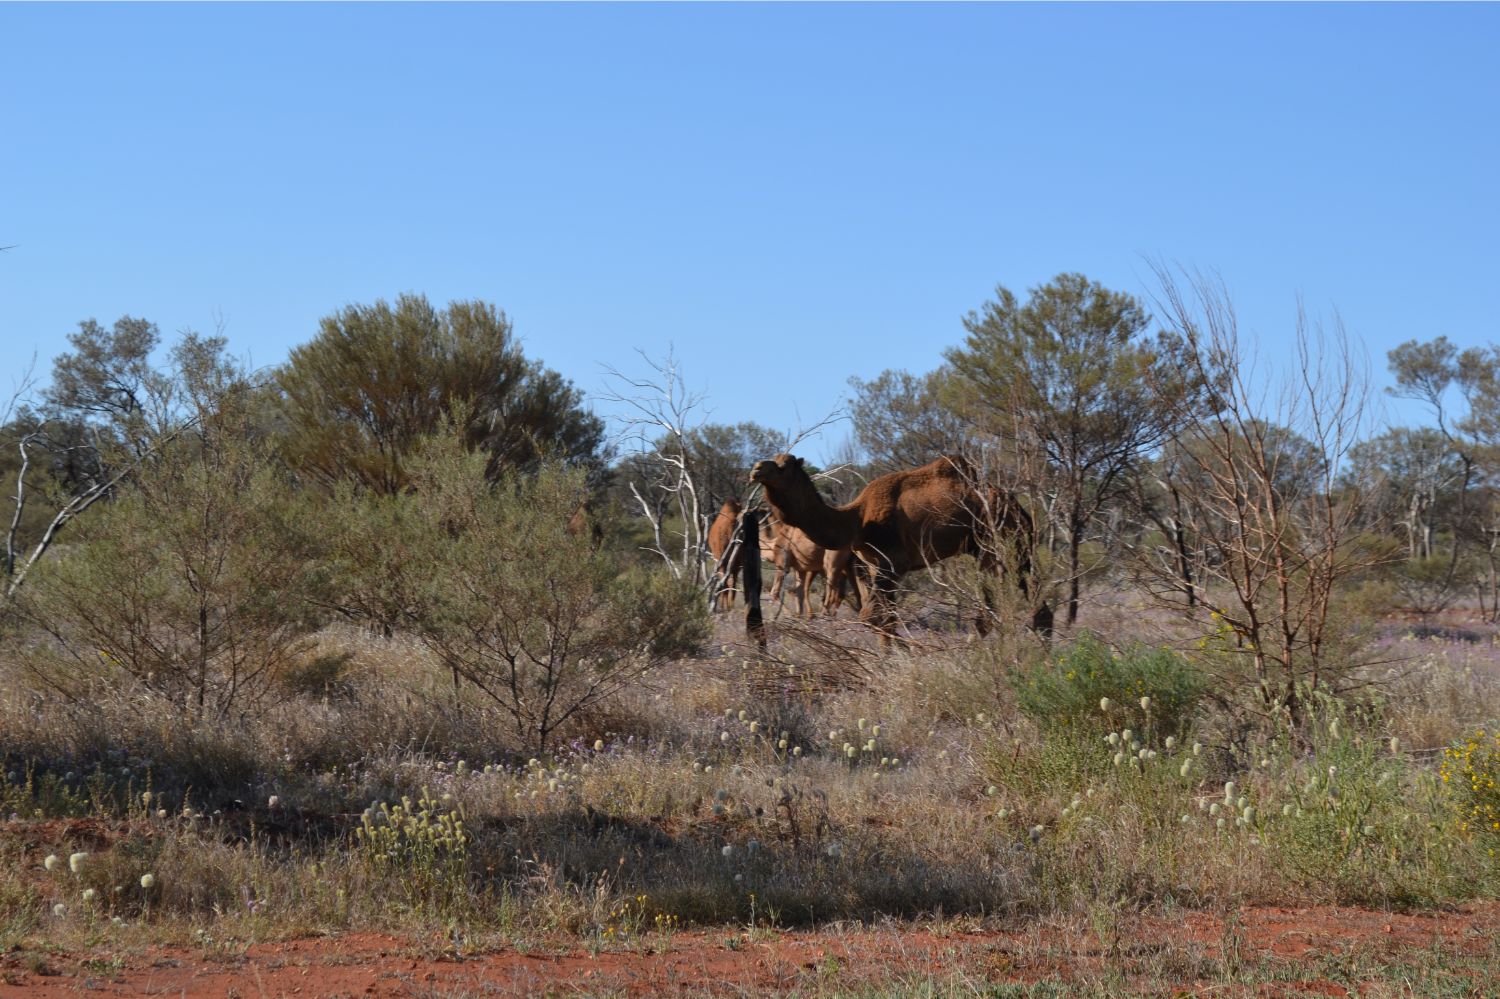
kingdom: Animalia
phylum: Chordata
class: Mammalia
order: Artiodactyla
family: Camelidae
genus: Camelus
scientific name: Camelus dromedarius
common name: One-humped camel
